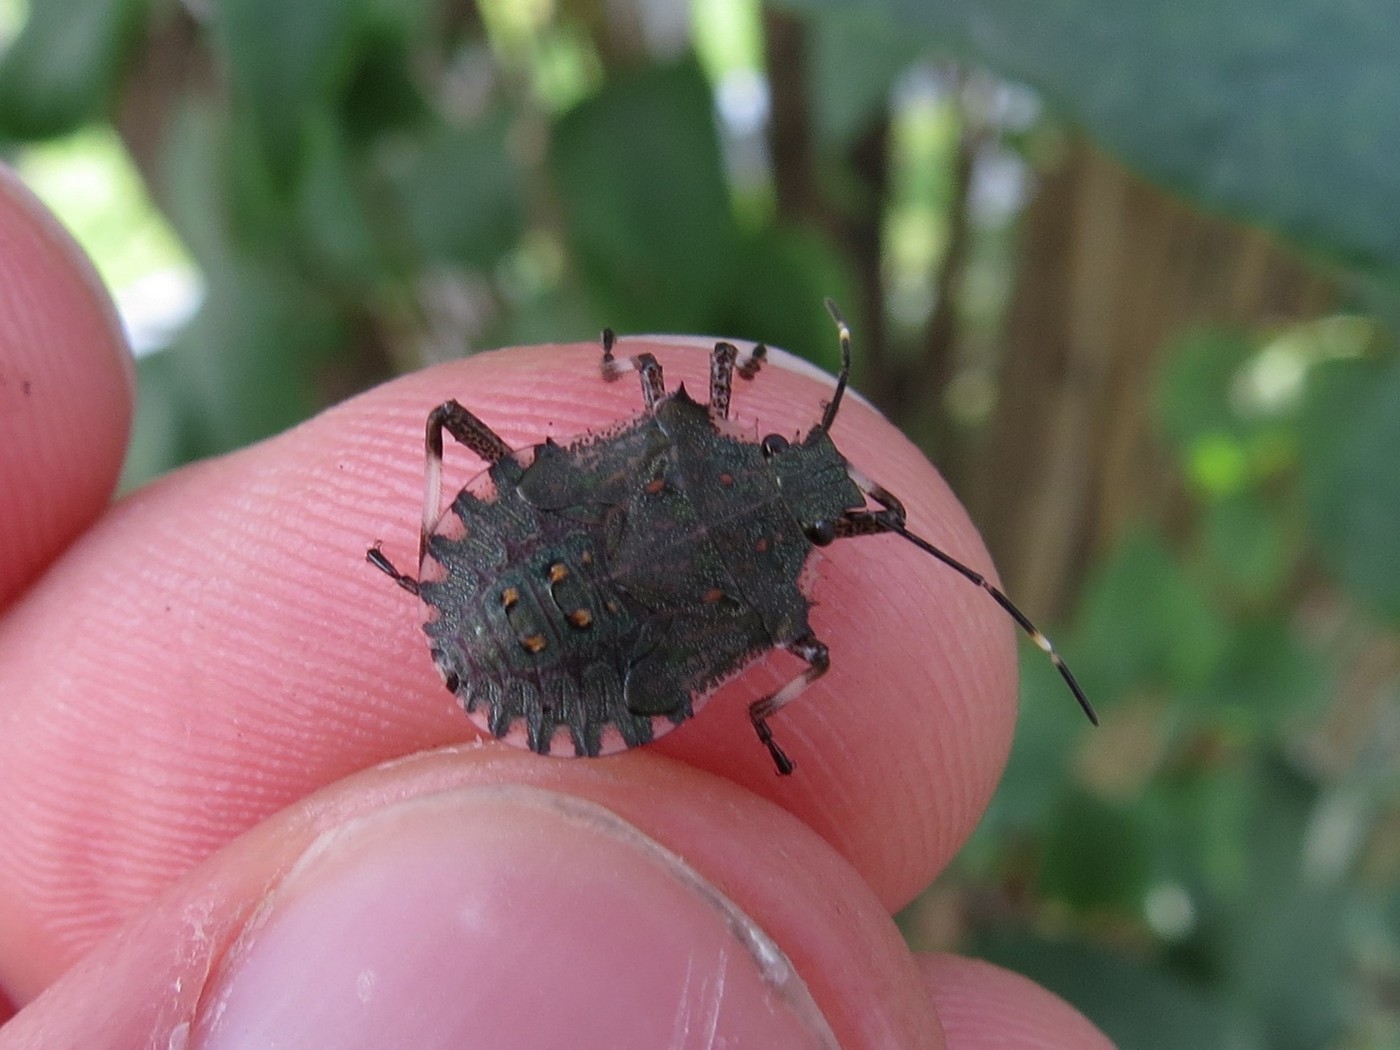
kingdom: Animalia
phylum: Arthropoda
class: Insecta
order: Hemiptera
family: Pentatomidae
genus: Halyomorpha
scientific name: Halyomorpha halys
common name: Brown marmorated stink bug
